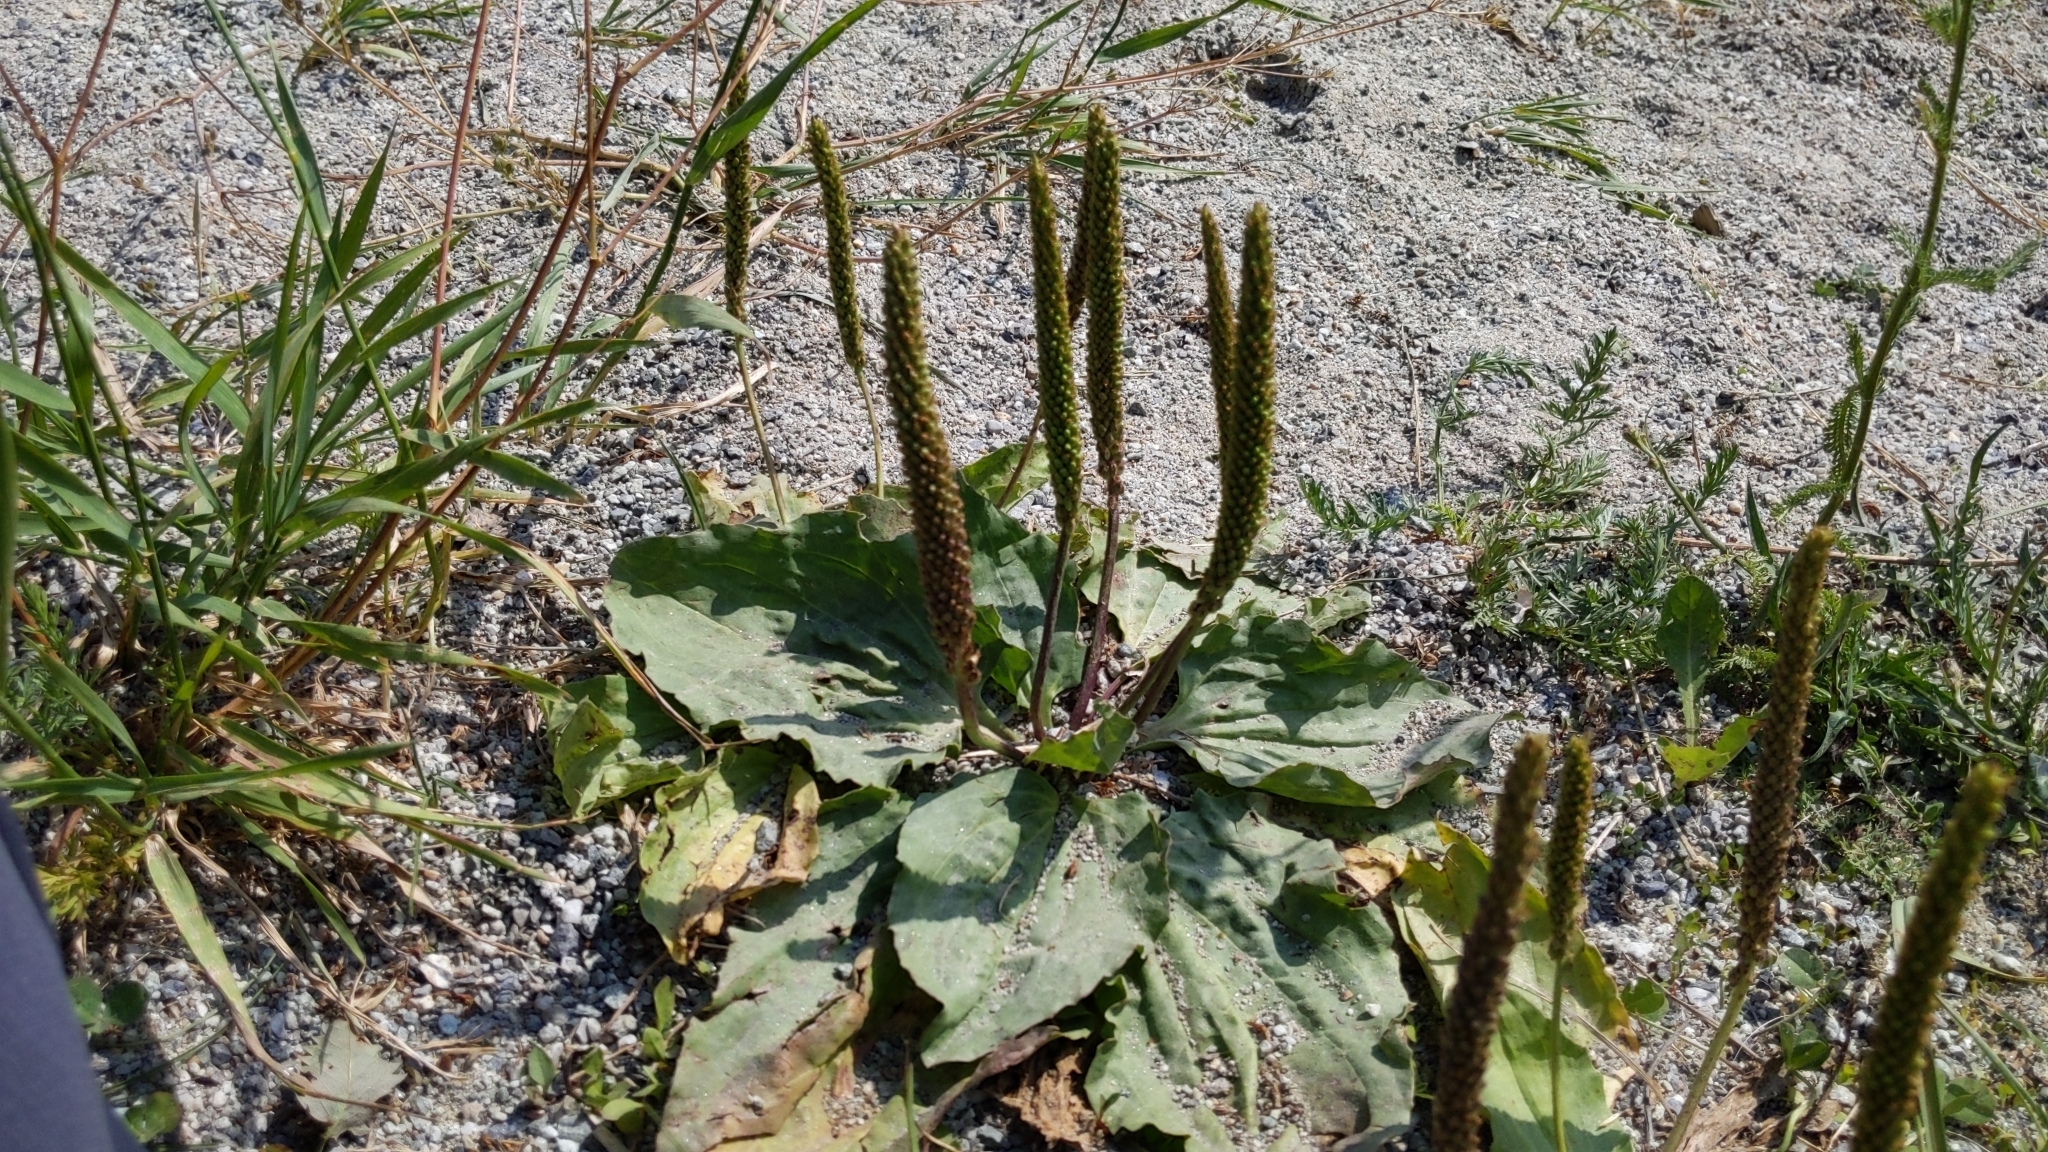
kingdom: Plantae
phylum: Tracheophyta
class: Magnoliopsida
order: Lamiales
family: Plantaginaceae
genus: Plantago
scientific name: Plantago major
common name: Common plantain
